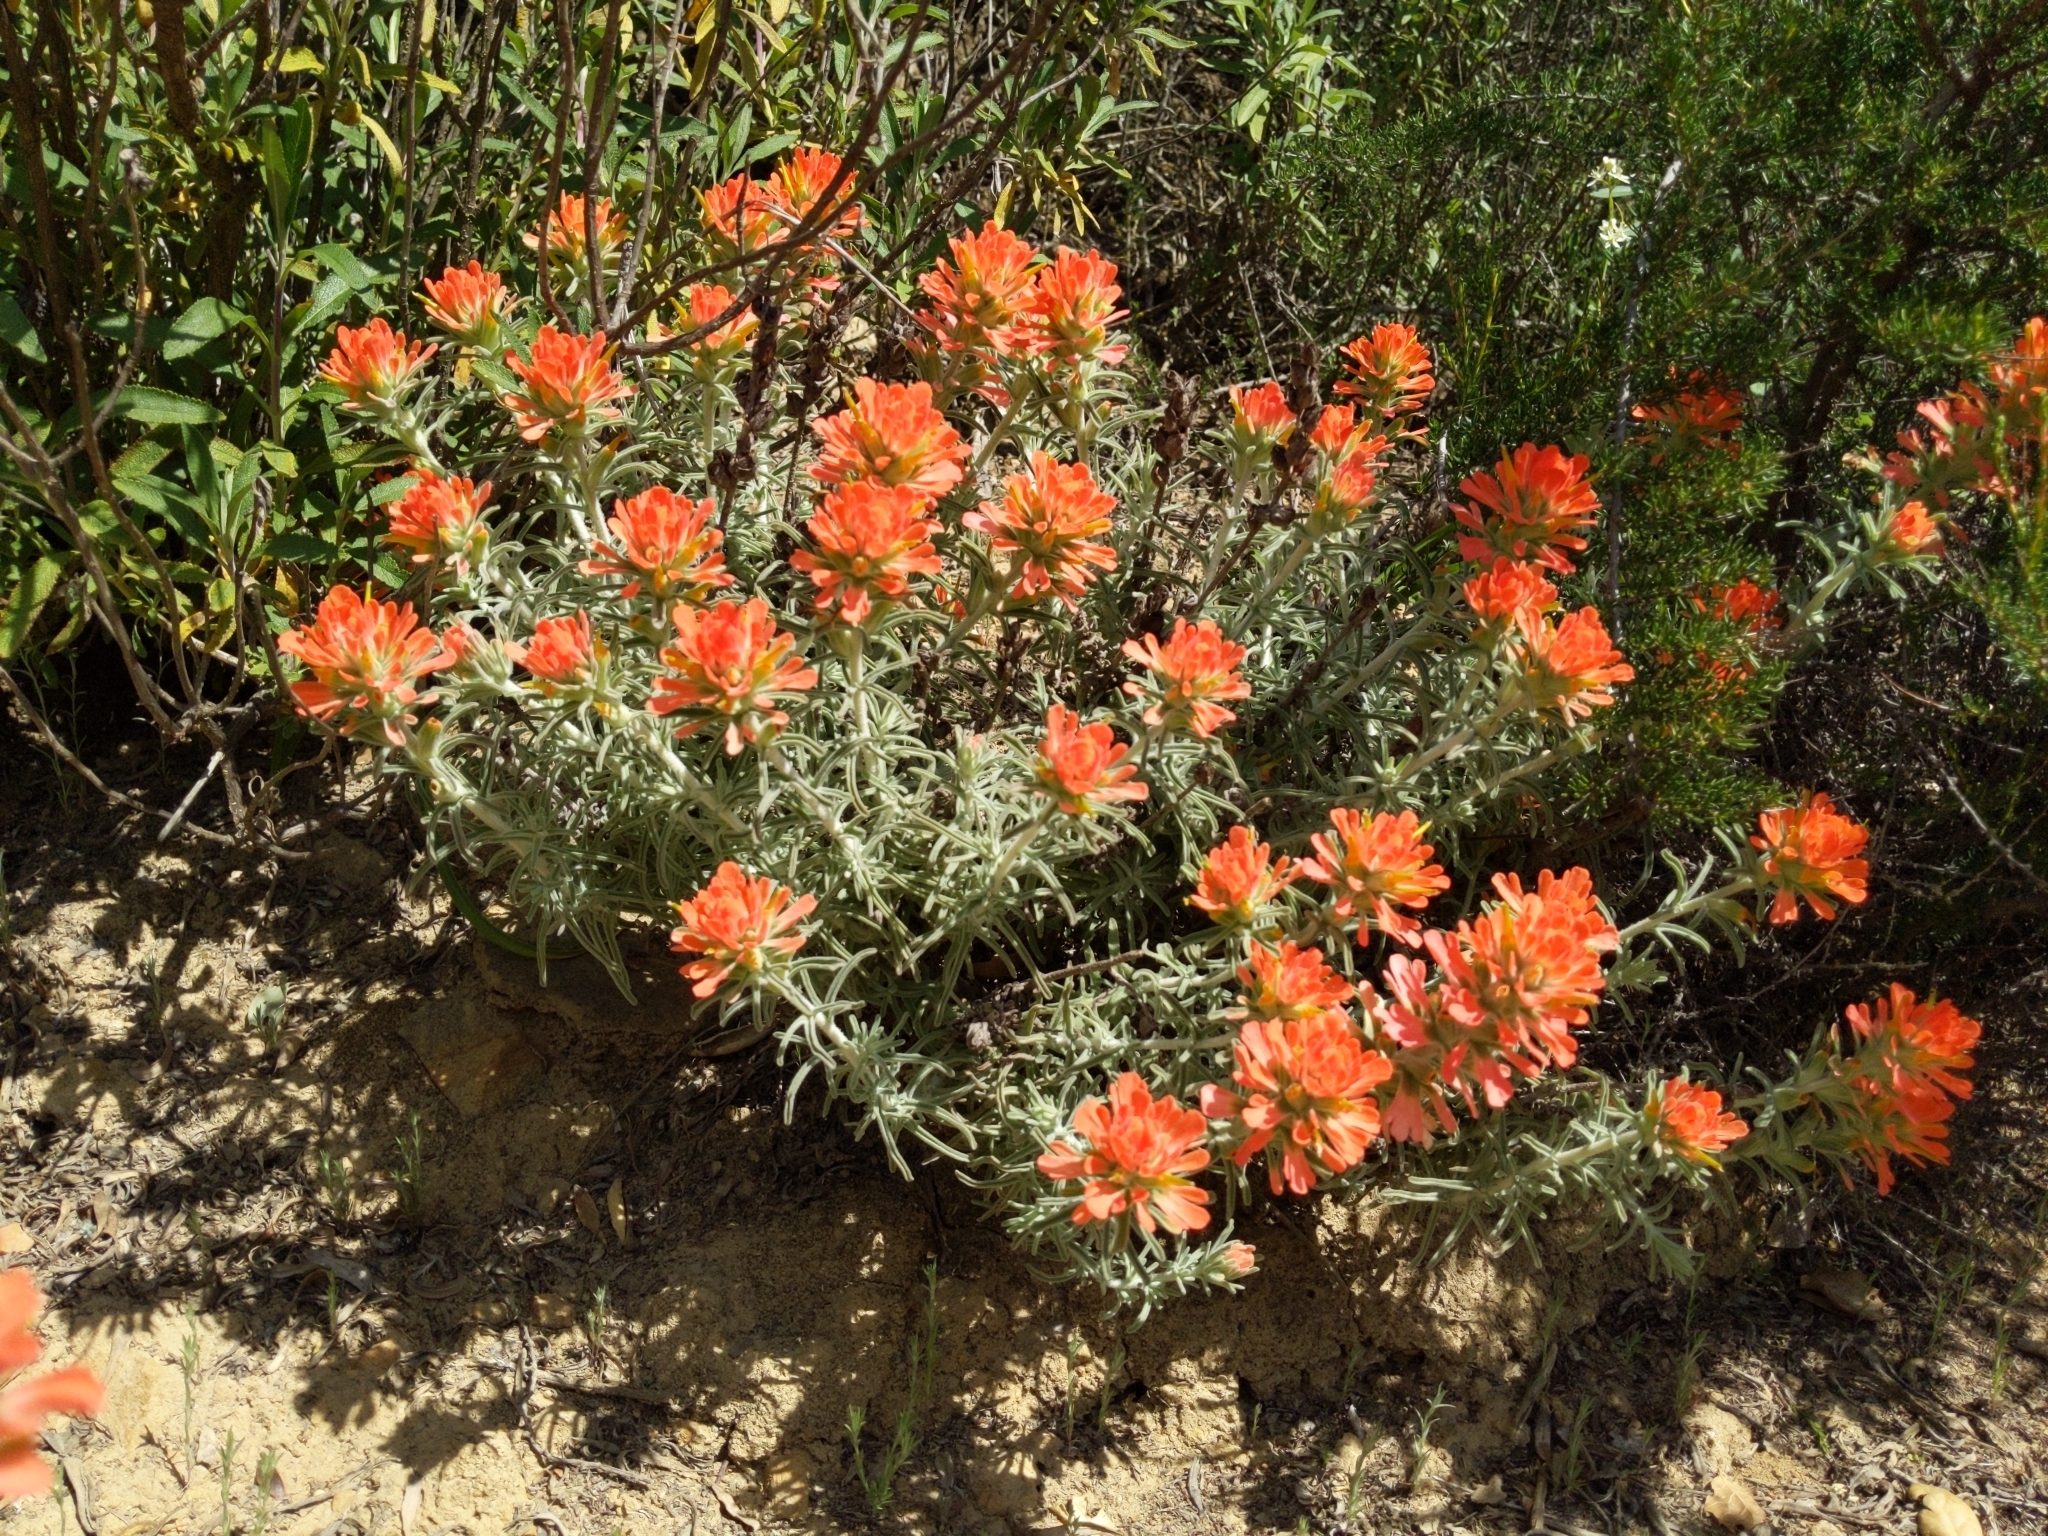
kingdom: Plantae
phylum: Tracheophyta
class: Magnoliopsida
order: Lamiales
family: Orobanchaceae
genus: Castilleja
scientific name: Castilleja foliolosa
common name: Woolly indian paintbrush
